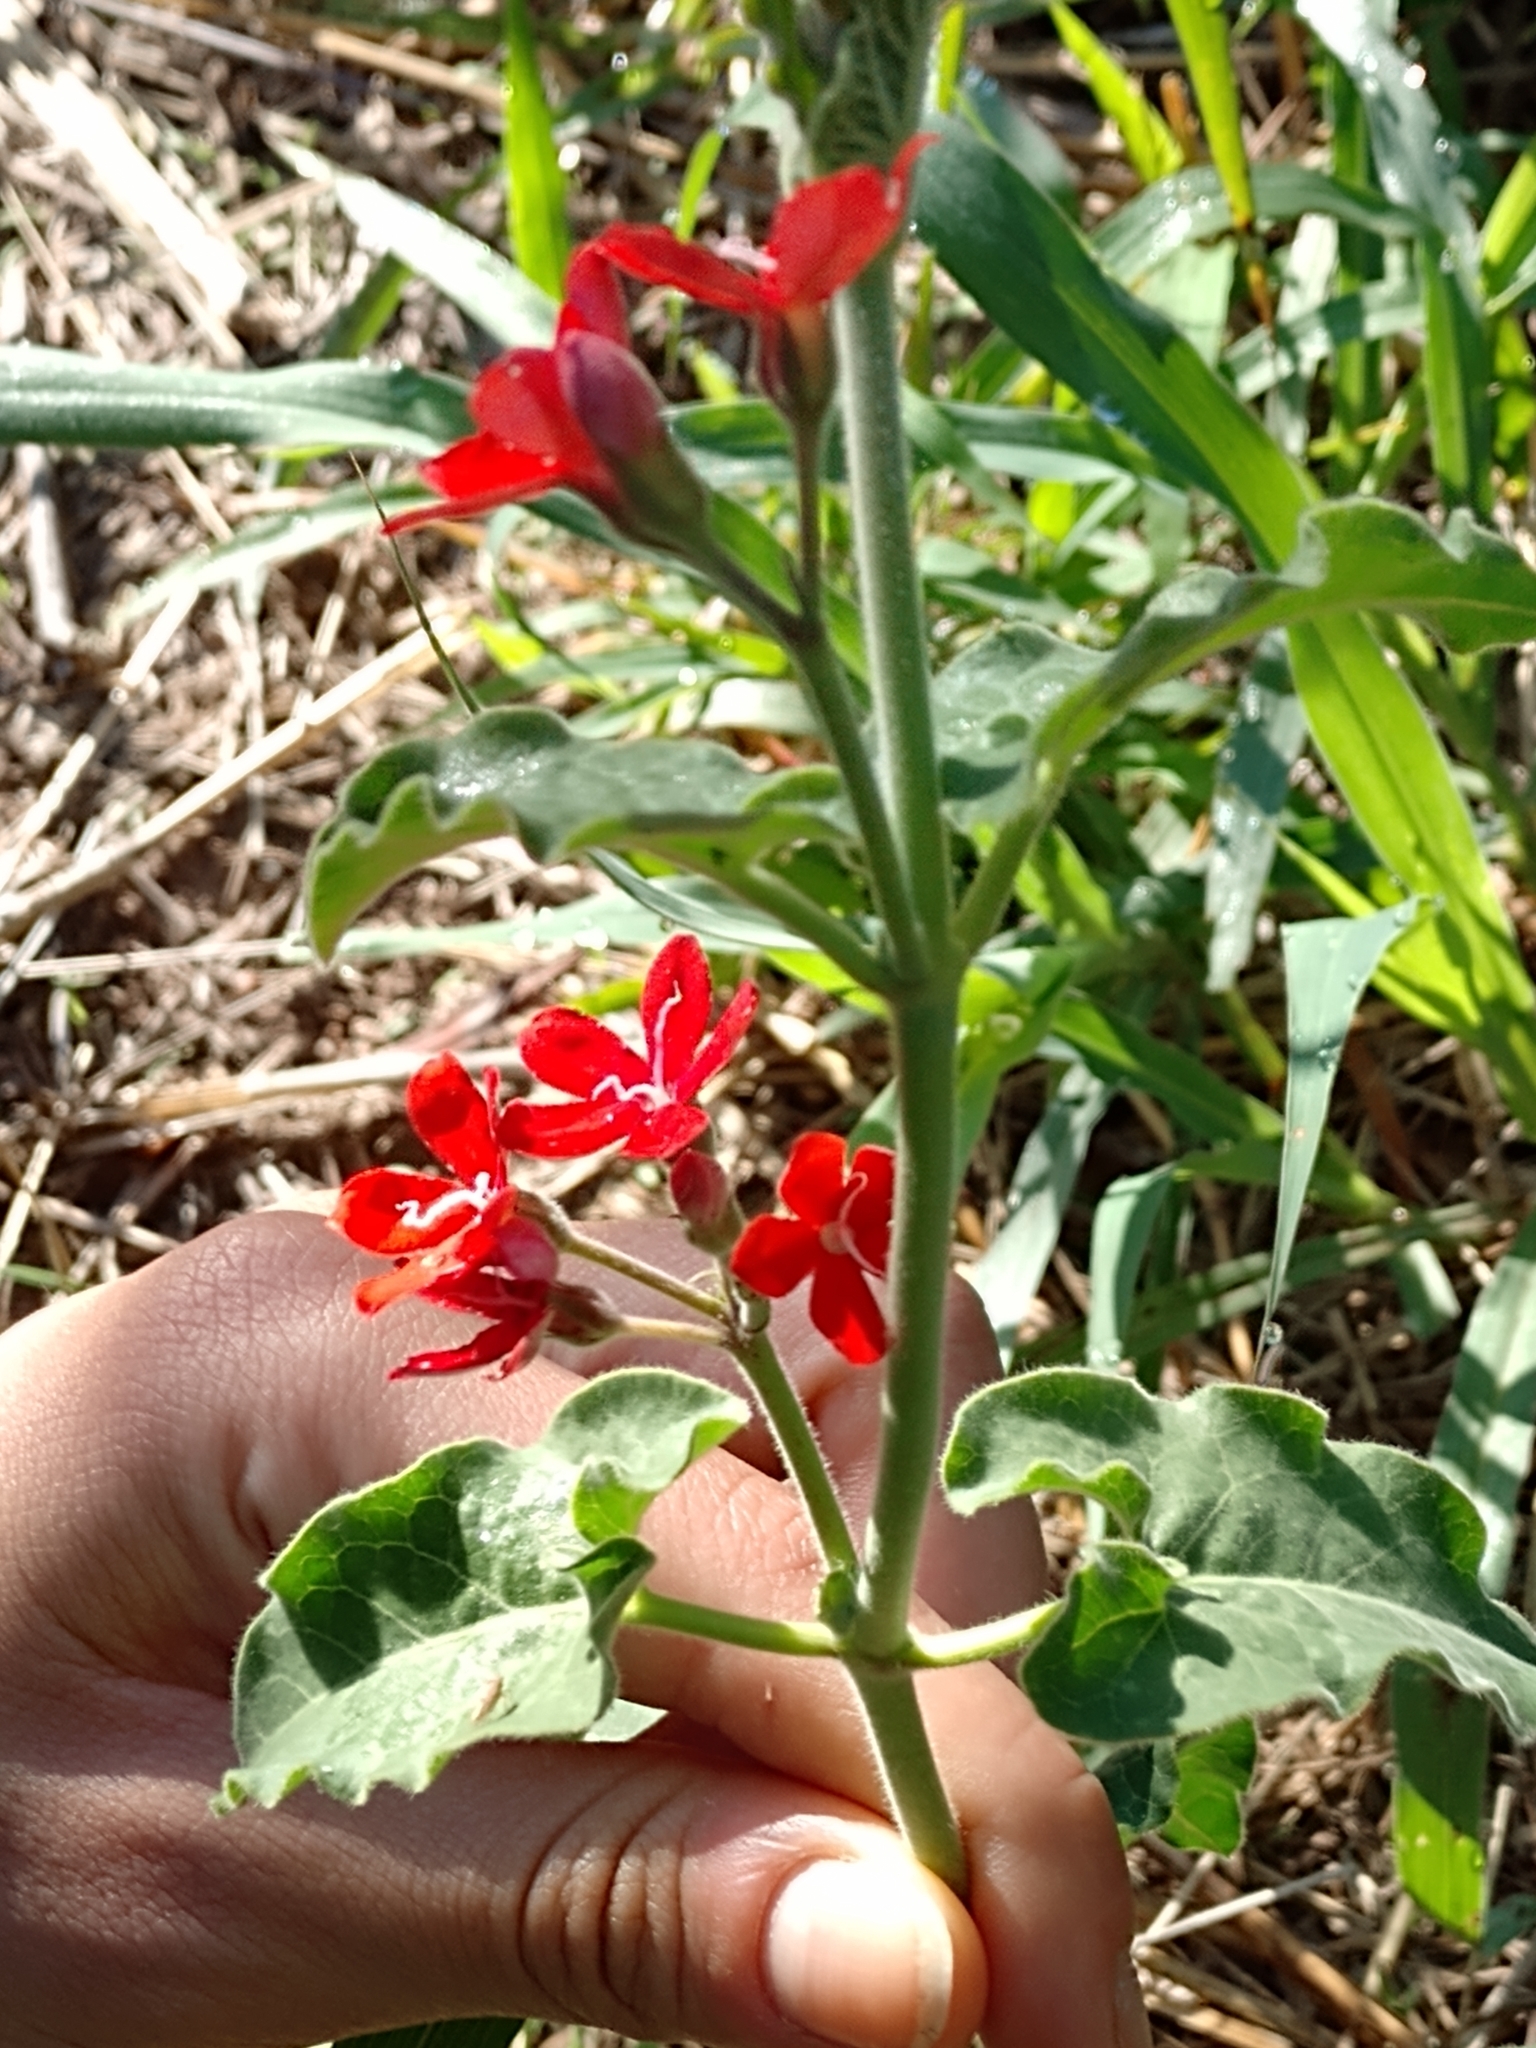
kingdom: Plantae
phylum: Tracheophyta
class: Magnoliopsida
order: Gentianales
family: Apocynaceae
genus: Oxypetalum
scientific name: Oxypetalum coccineum
